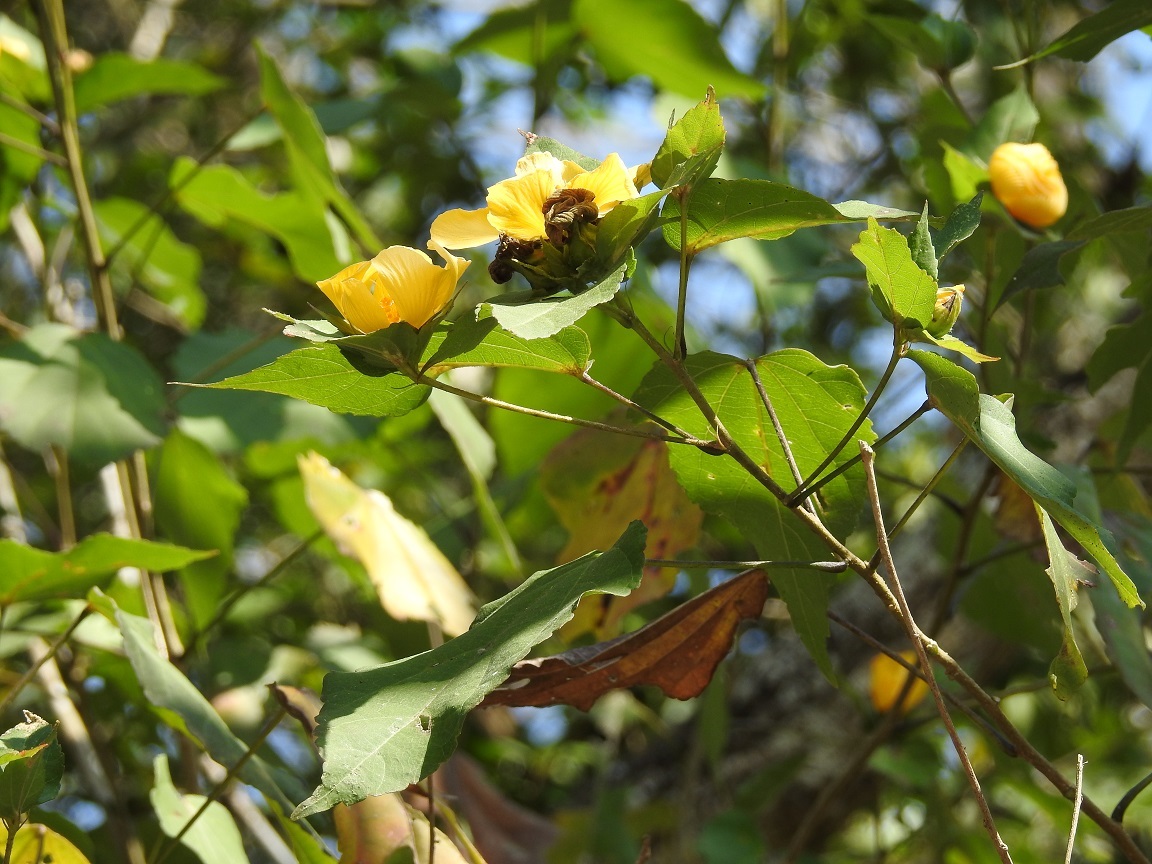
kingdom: Plantae
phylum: Tracheophyta
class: Magnoliopsida
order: Malvales
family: Malvaceae
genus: Dendrosida
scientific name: Dendrosida sharpiana
